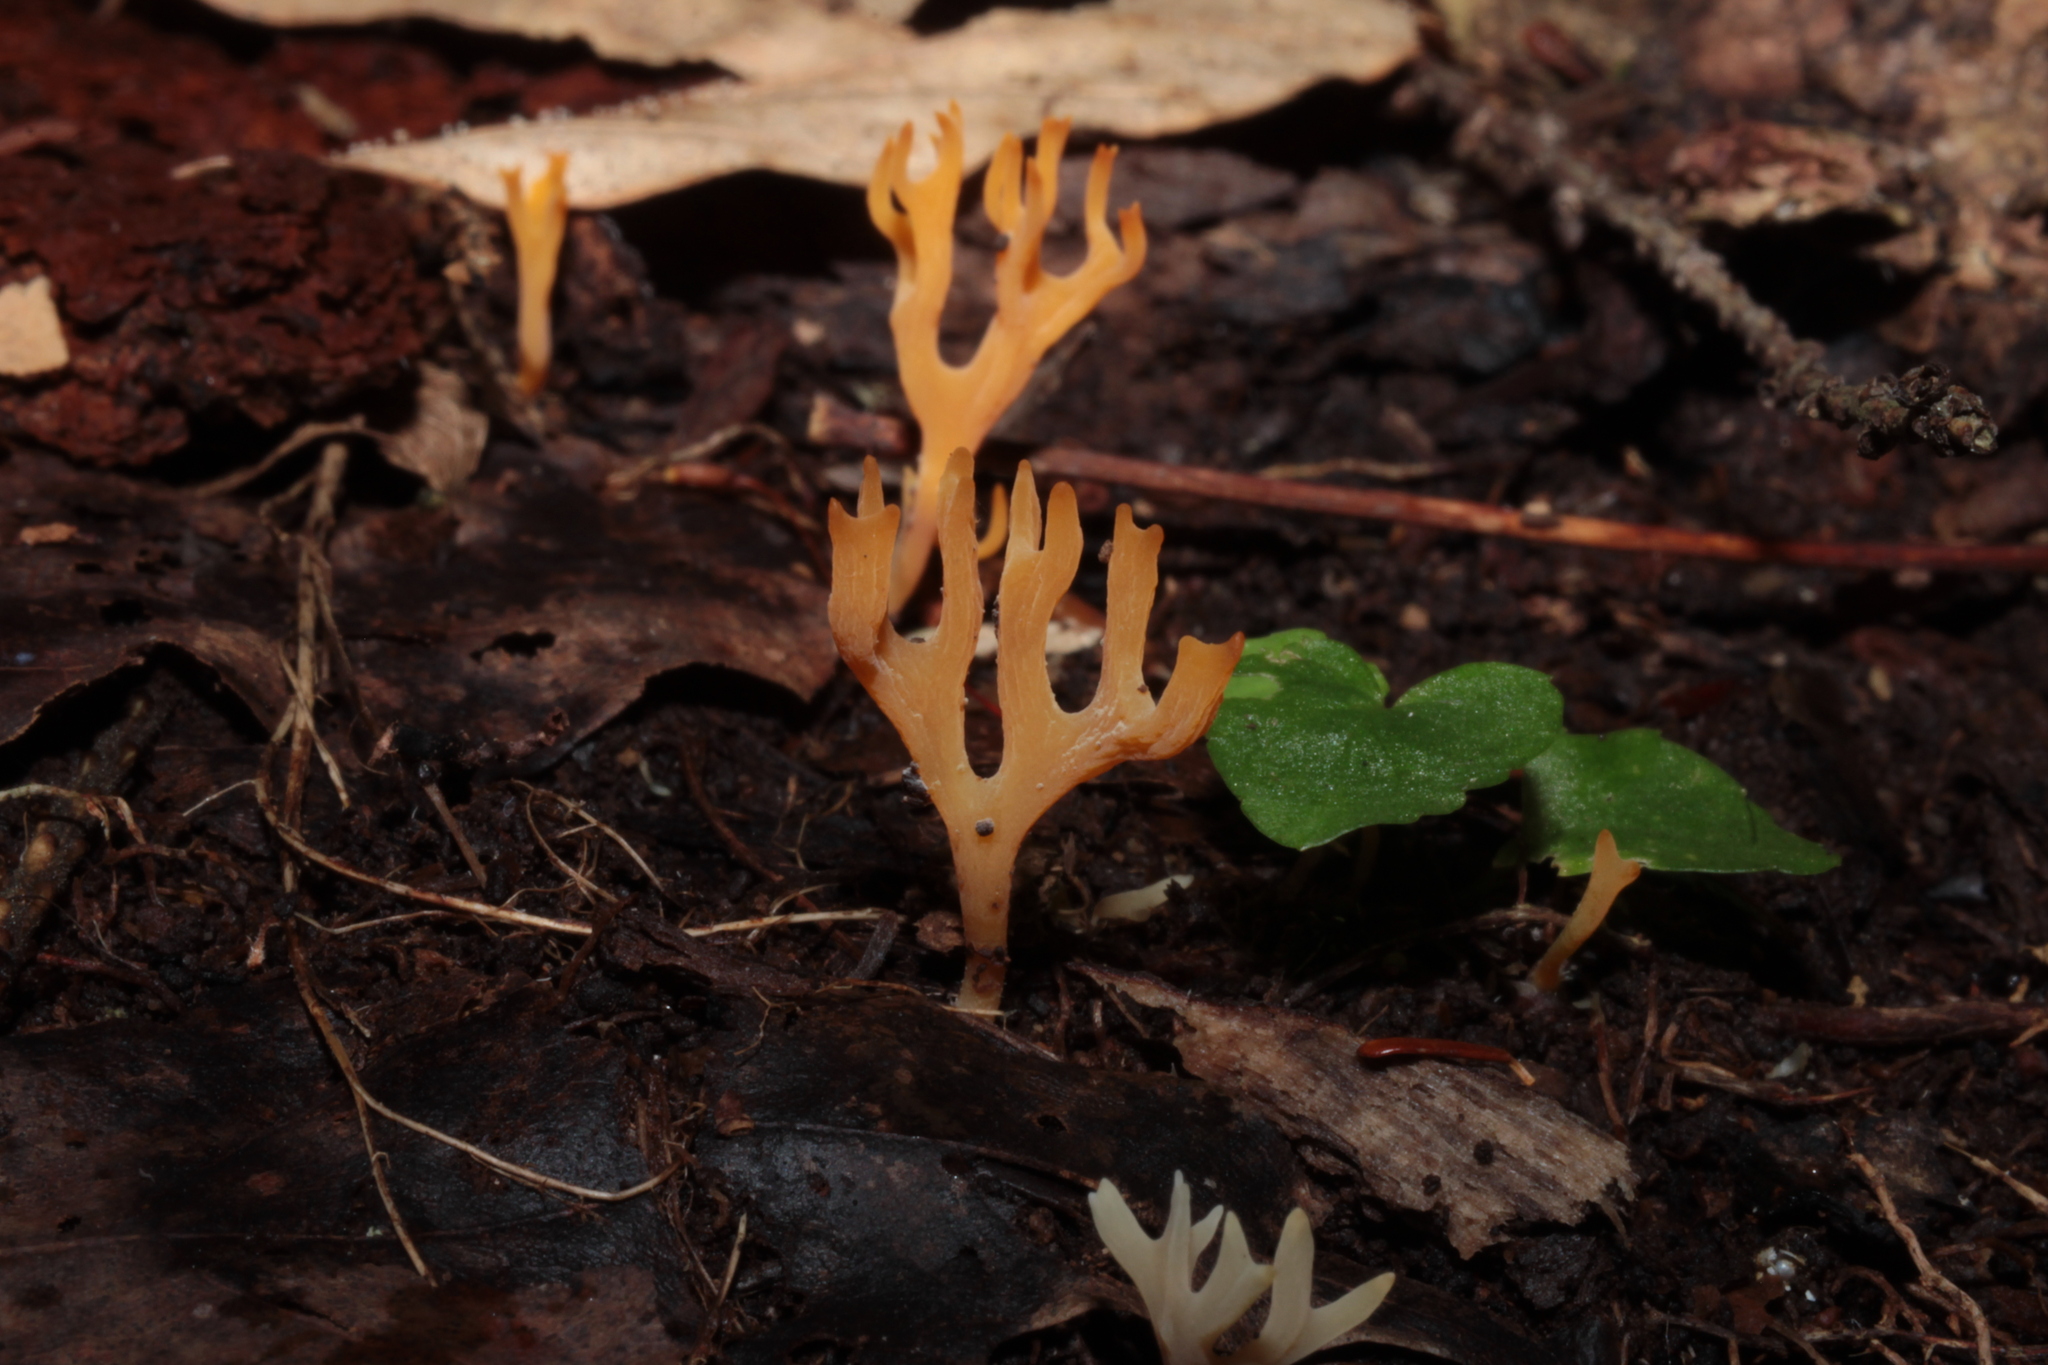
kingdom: Fungi
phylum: Basidiomycota
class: Agaricomycetes
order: Agaricales
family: Clavariaceae
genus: Ramariopsis
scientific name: Ramariopsis crocea
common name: Orange coral
